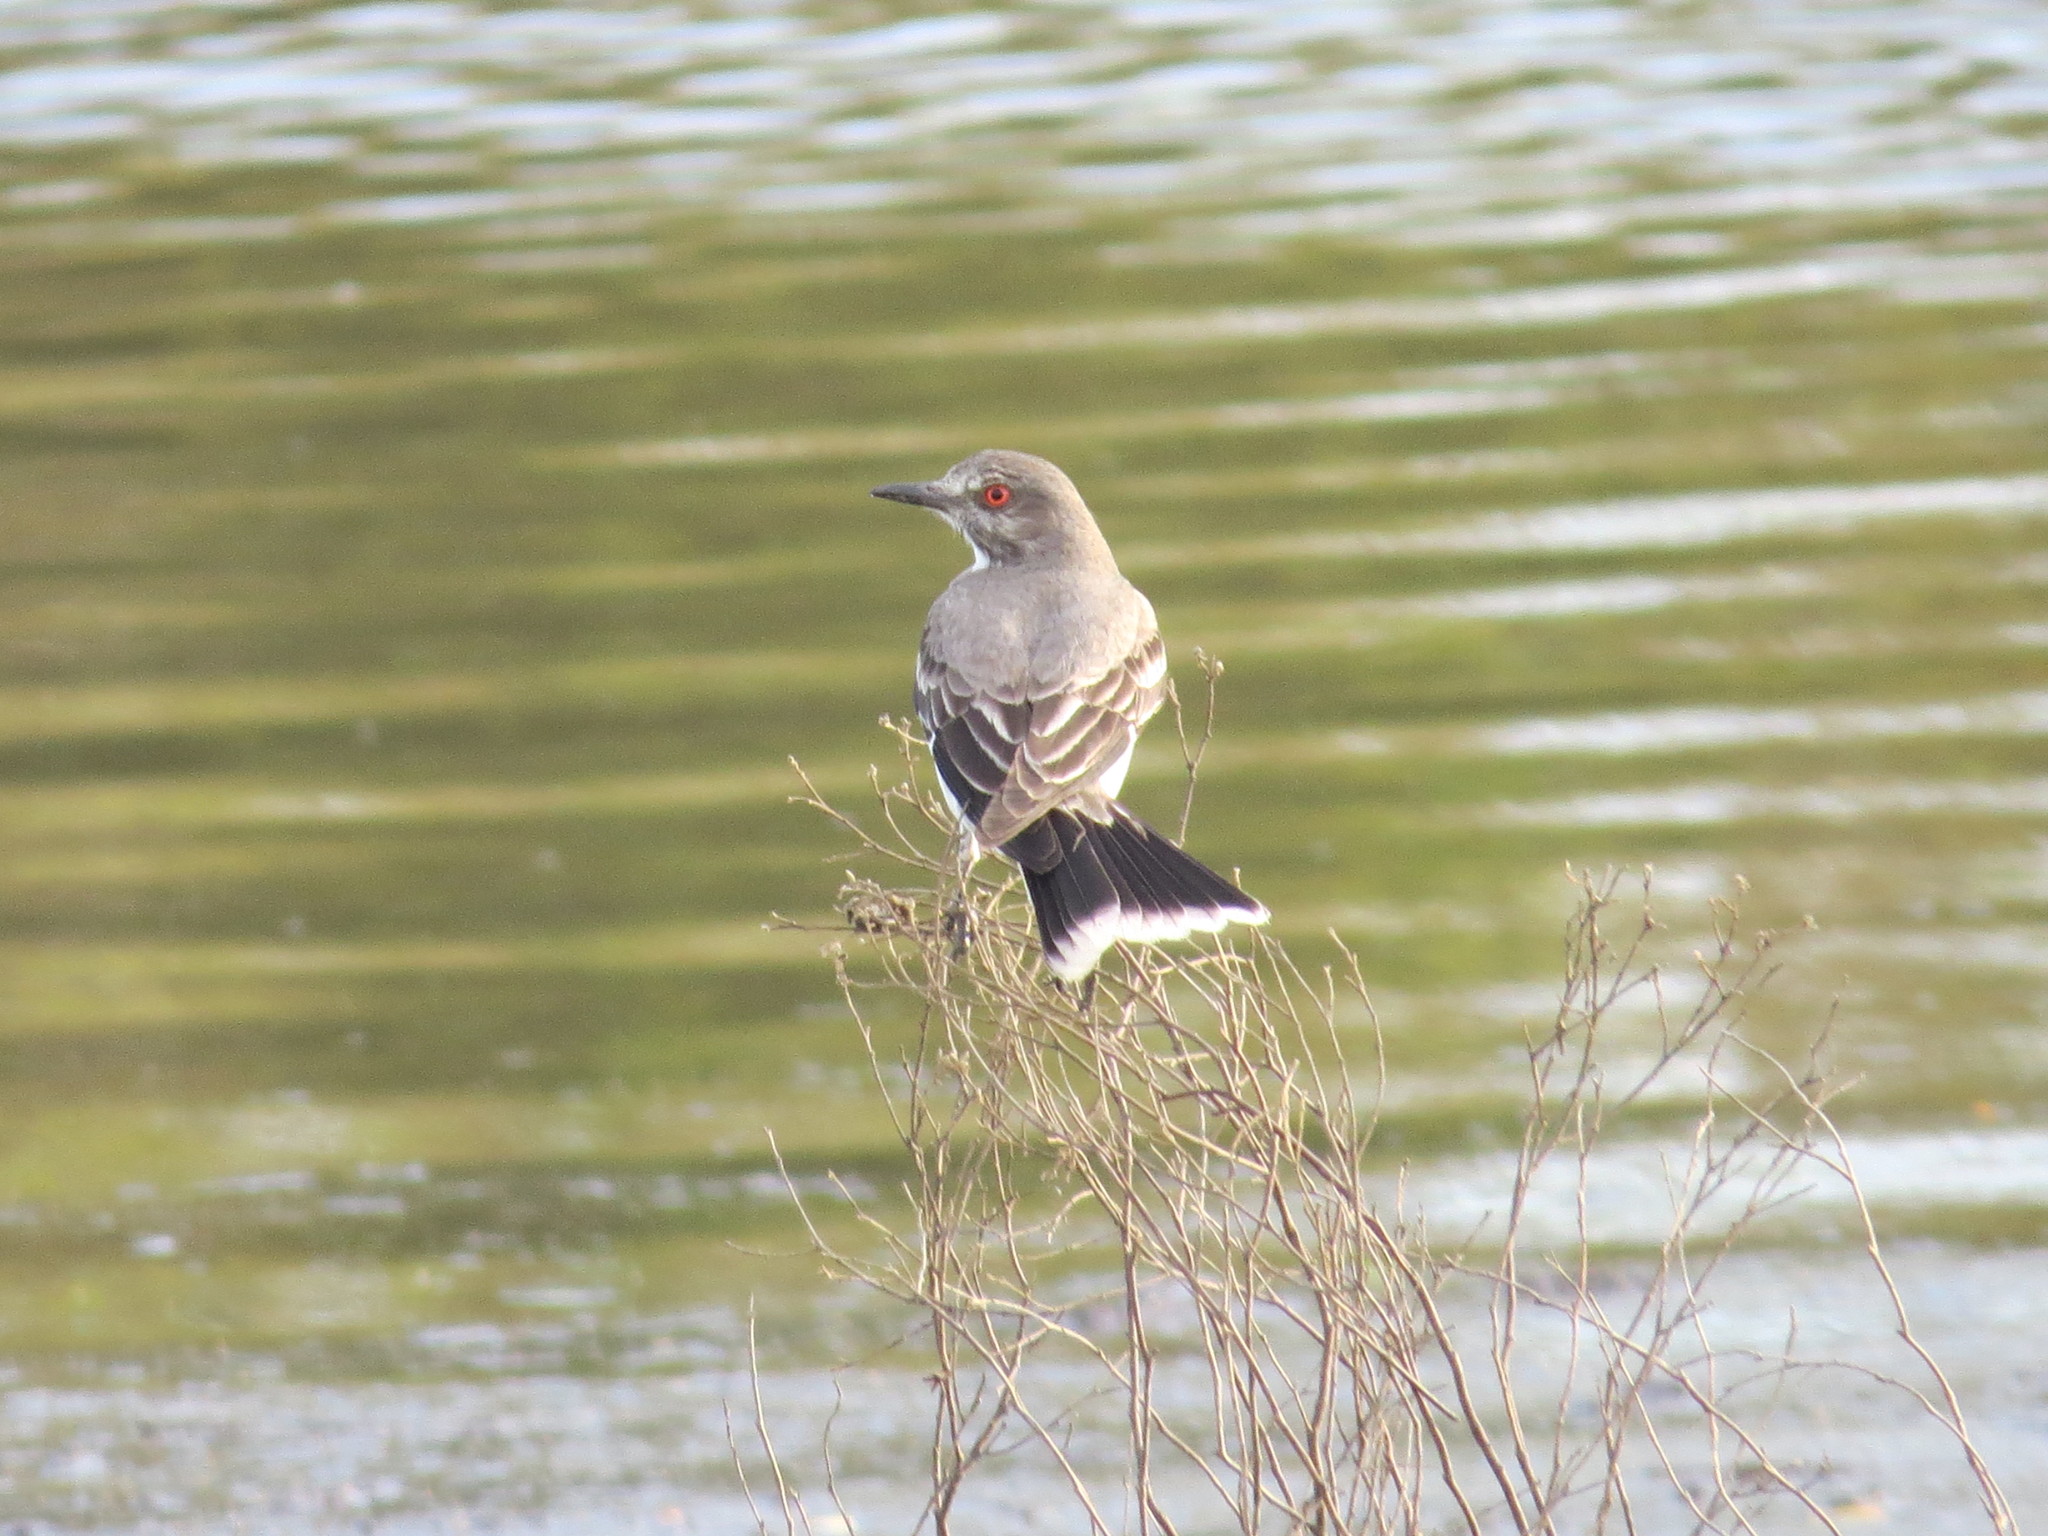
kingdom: Animalia
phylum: Chordata
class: Aves
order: Passeriformes
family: Tyrannidae
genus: Xolmis
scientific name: Xolmis cinereus
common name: Grey monjita
